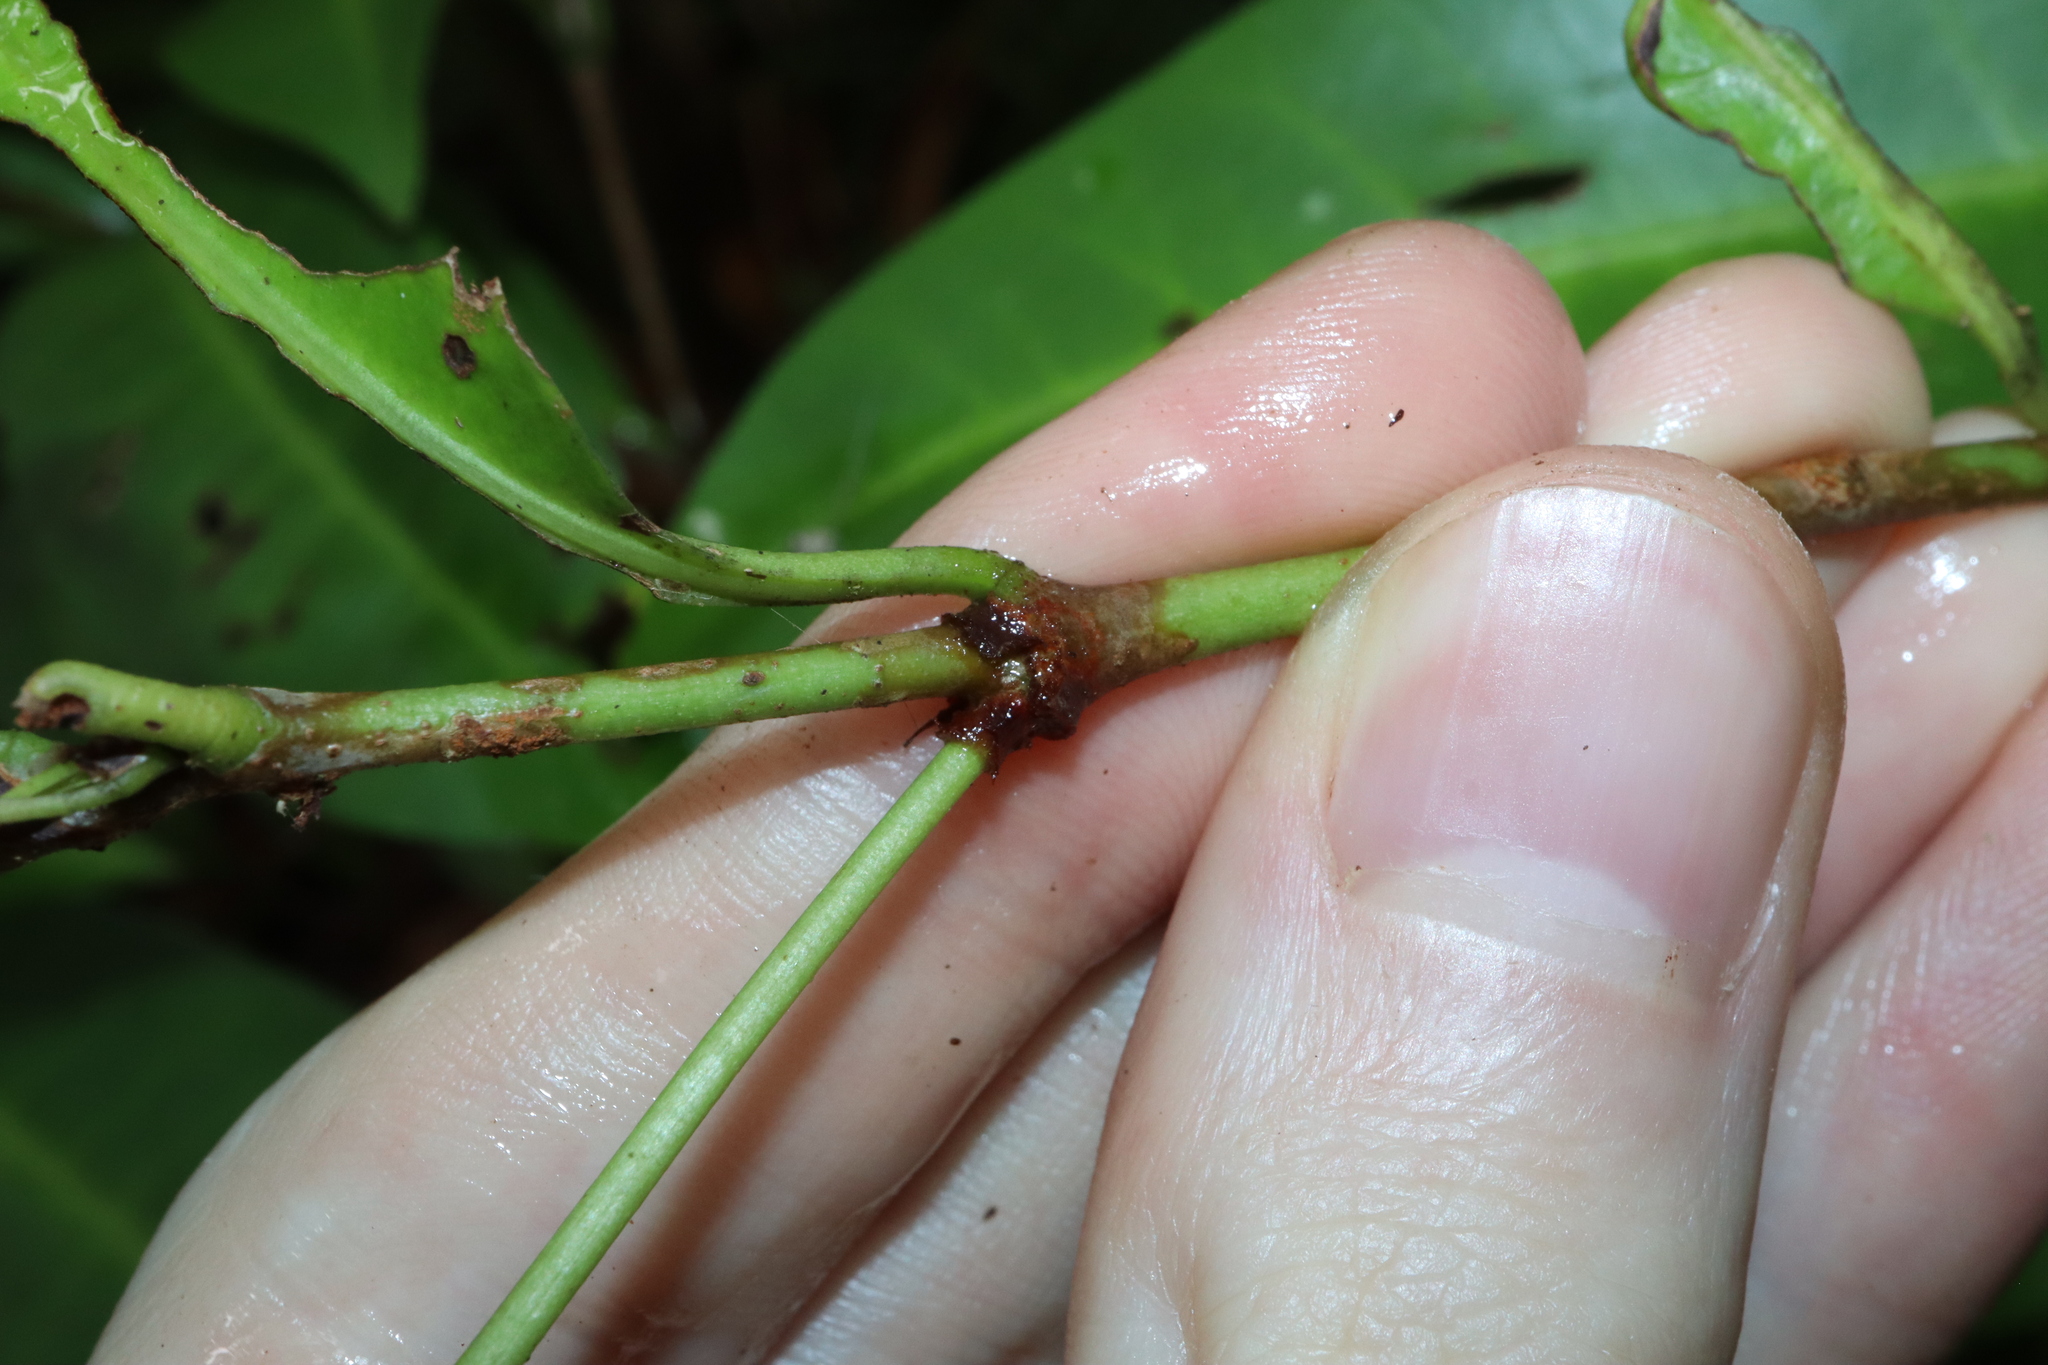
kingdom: Plantae
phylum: Tracheophyta
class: Magnoliopsida
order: Gentianales
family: Rubiaceae
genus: Ixora
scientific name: Ixora biflora
